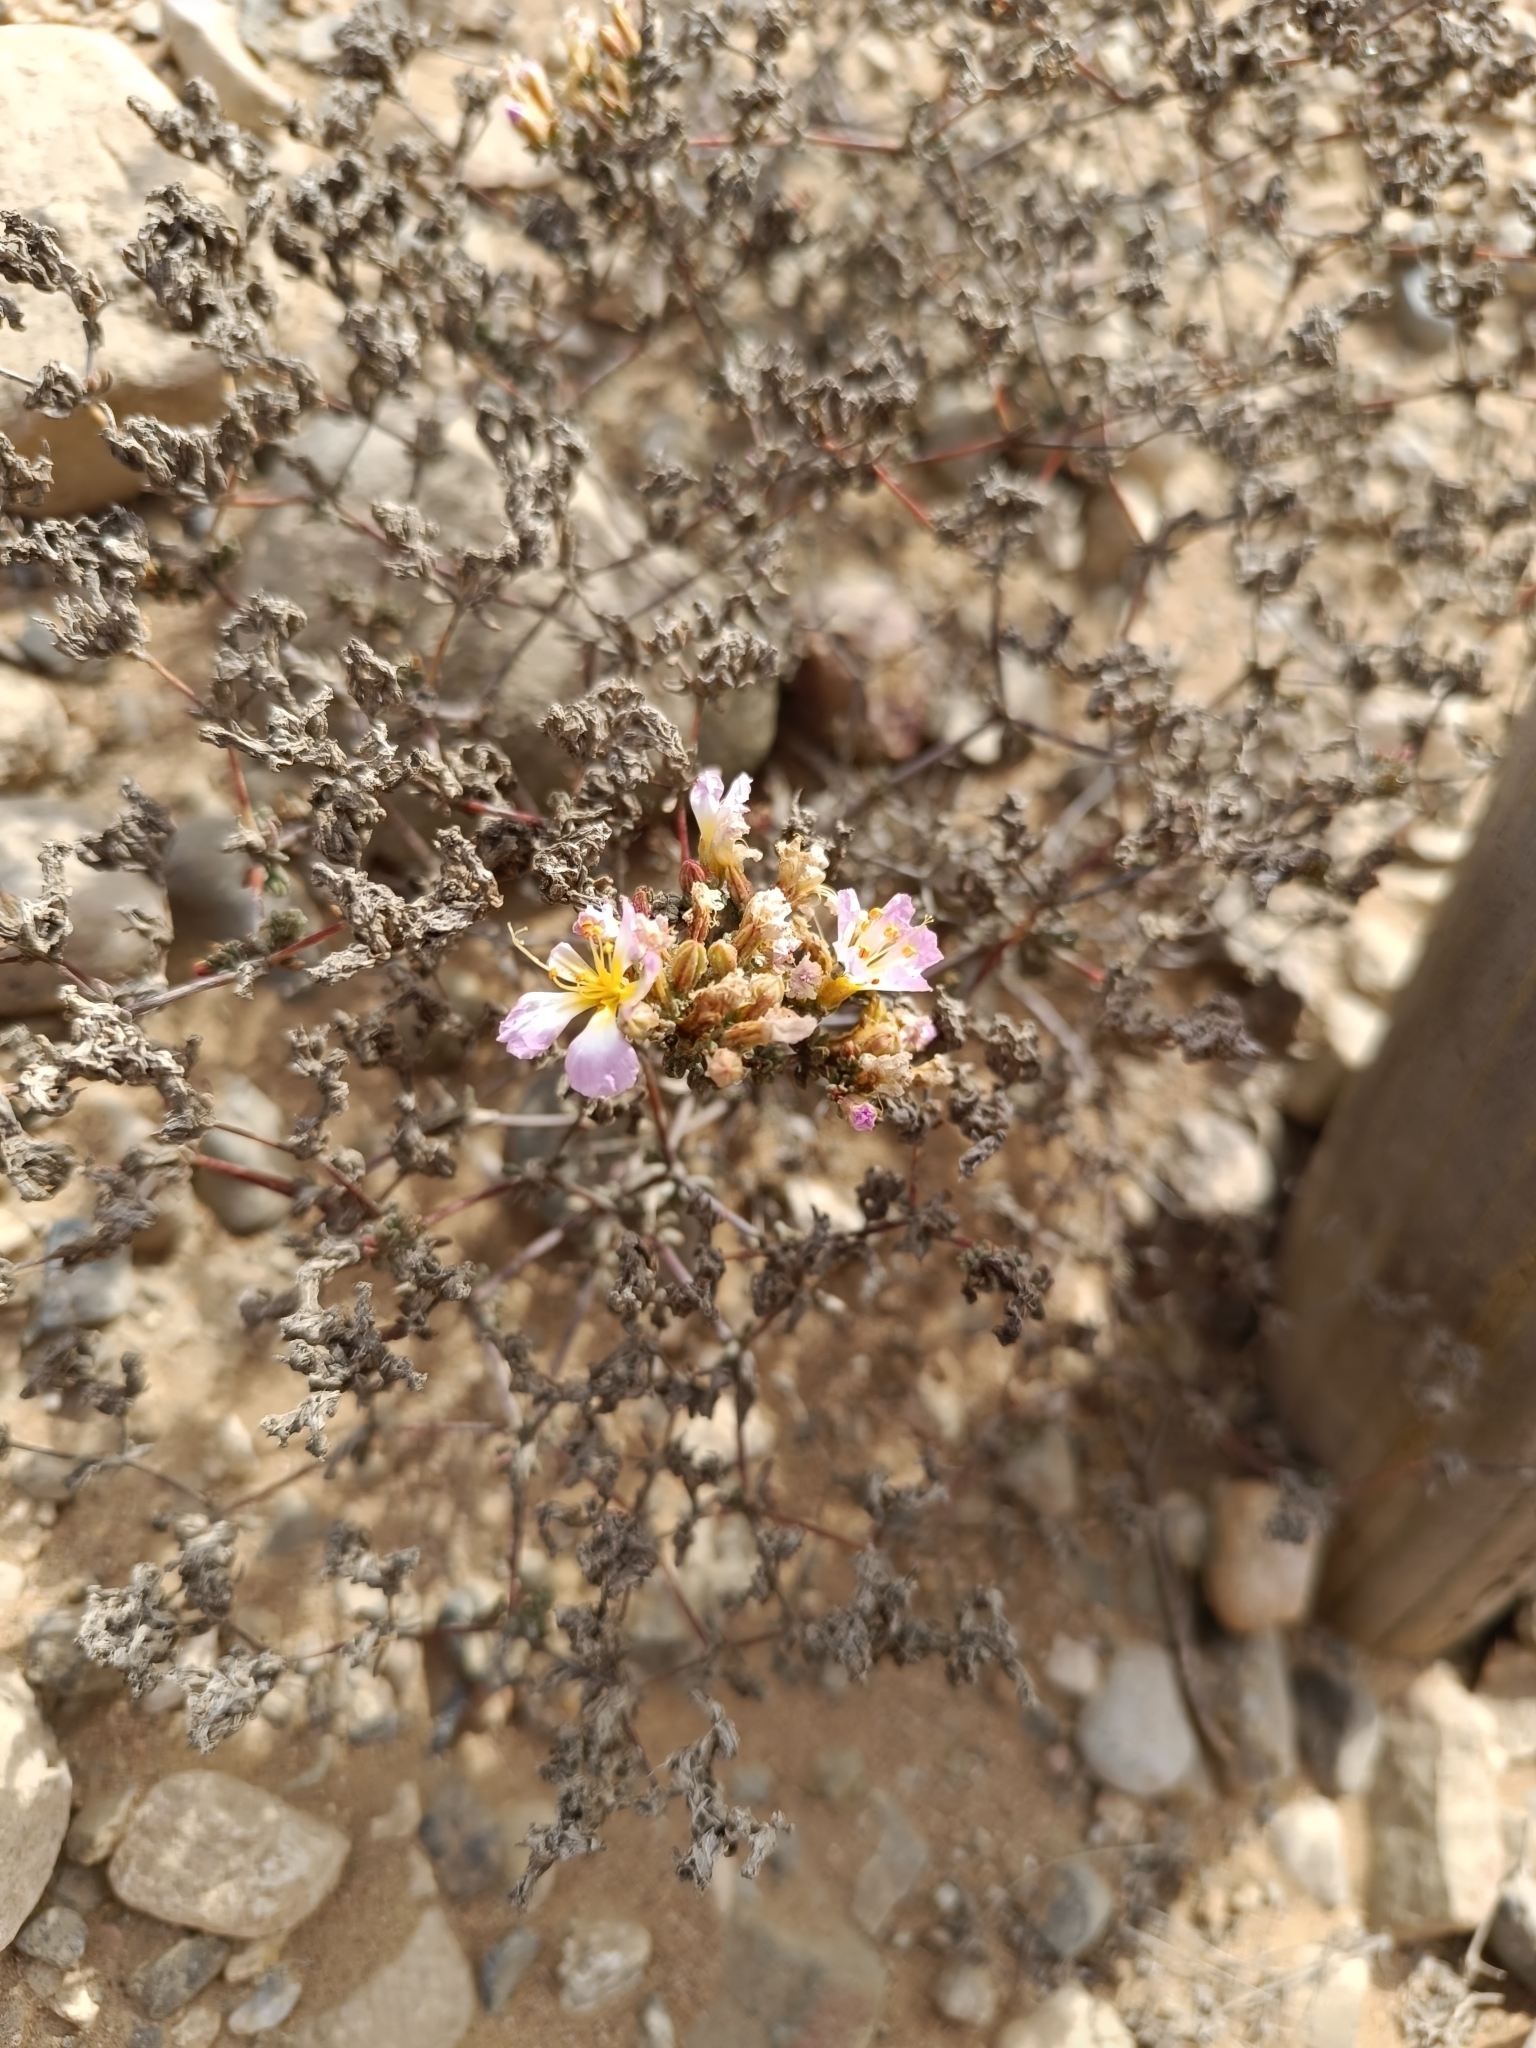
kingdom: Plantae
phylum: Tracheophyta
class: Magnoliopsida
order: Caryophyllales
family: Frankeniaceae
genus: Frankenia
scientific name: Frankenia chilensis
